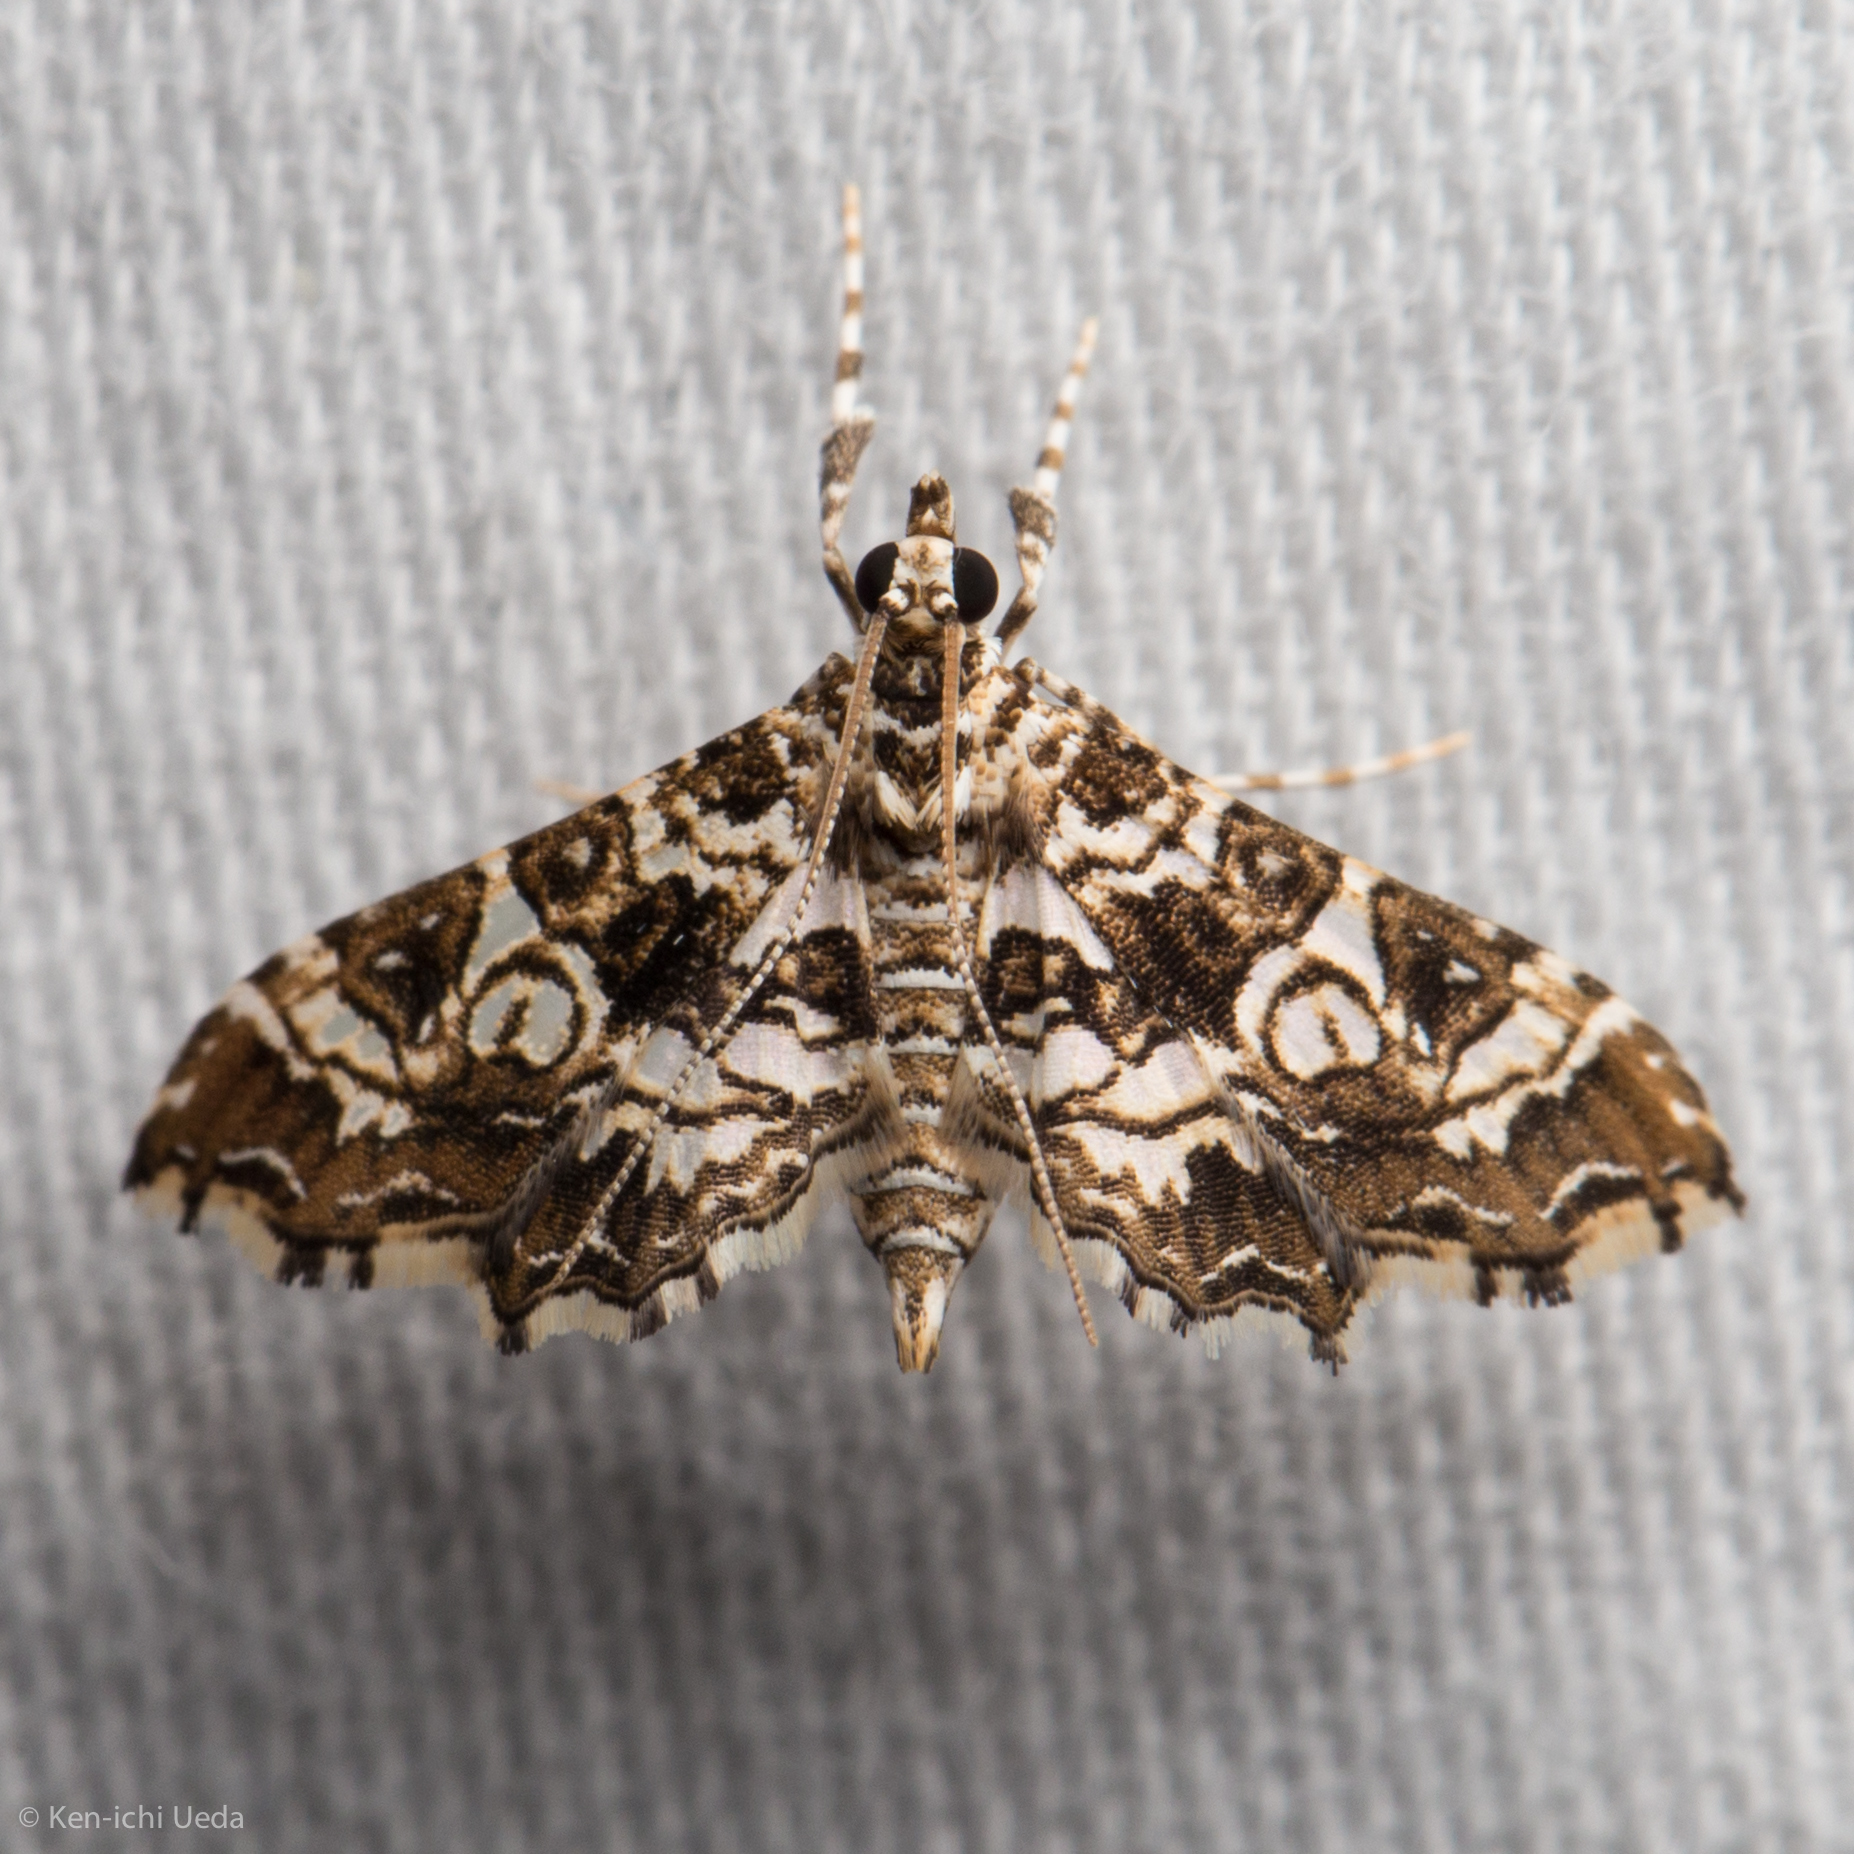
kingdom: Animalia
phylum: Arthropoda
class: Insecta
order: Lepidoptera
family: Crambidae
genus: Sisyracera
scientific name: Sisyracera inabsconsalis
